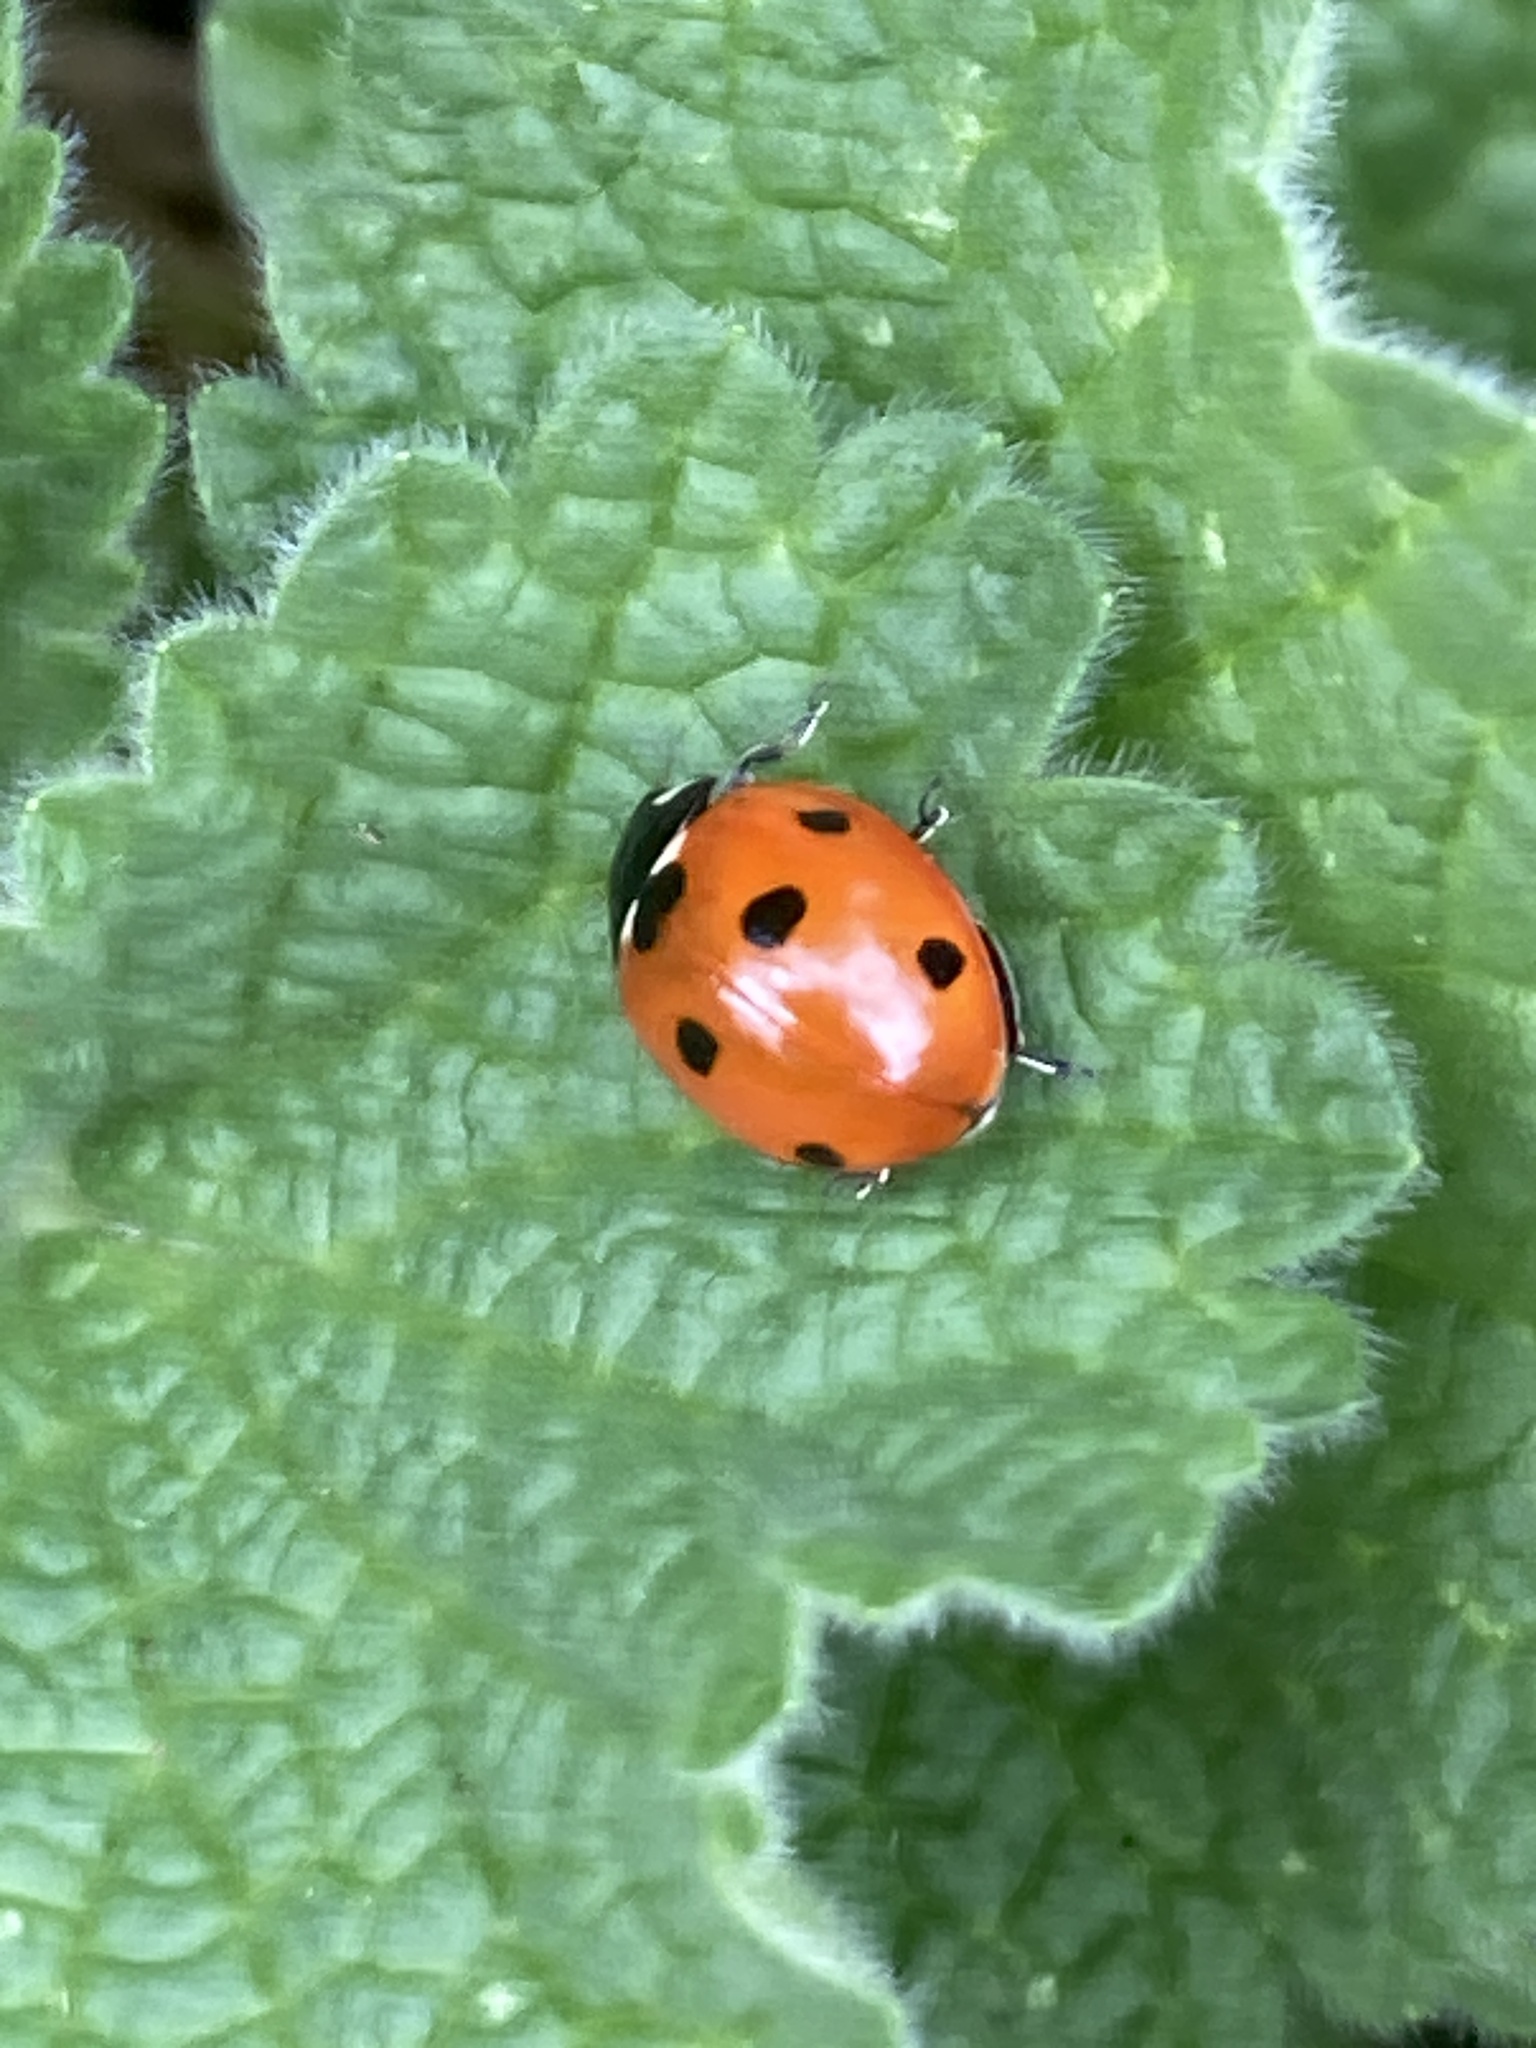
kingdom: Animalia
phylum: Arthropoda
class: Insecta
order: Coleoptera
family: Coccinellidae
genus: Coccinella
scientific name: Coccinella septempunctata
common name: Sevenspotted lady beetle
